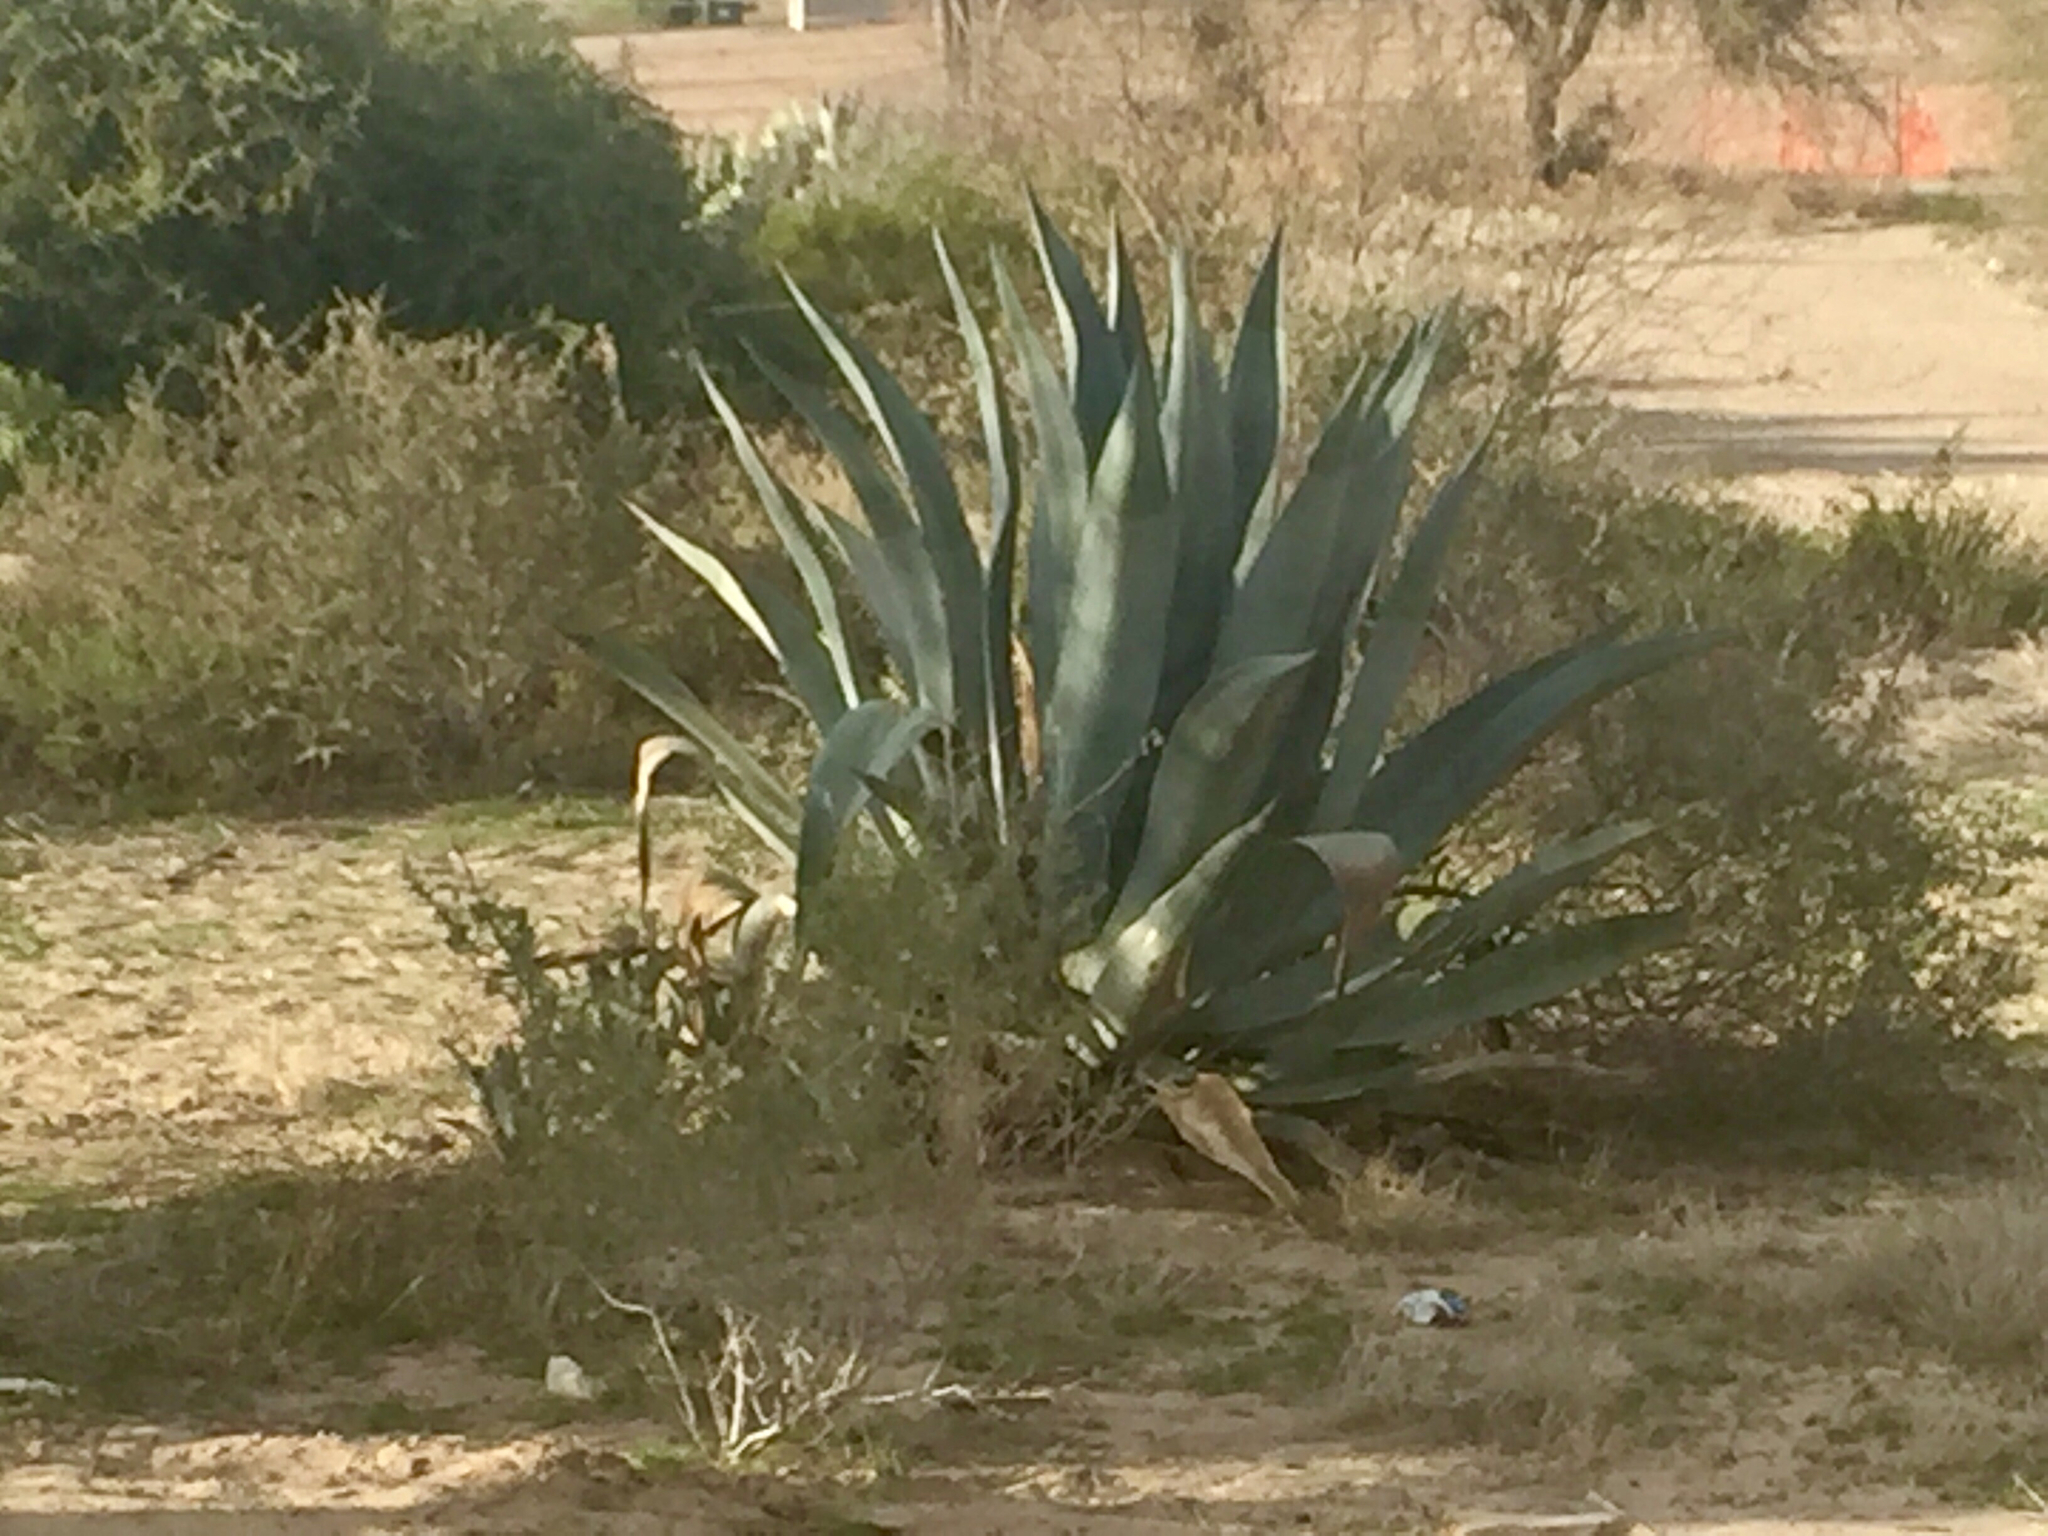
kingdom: Plantae
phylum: Tracheophyta
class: Liliopsida
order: Asparagales
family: Asparagaceae
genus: Agave
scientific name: Agave americana
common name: Centuryplant
